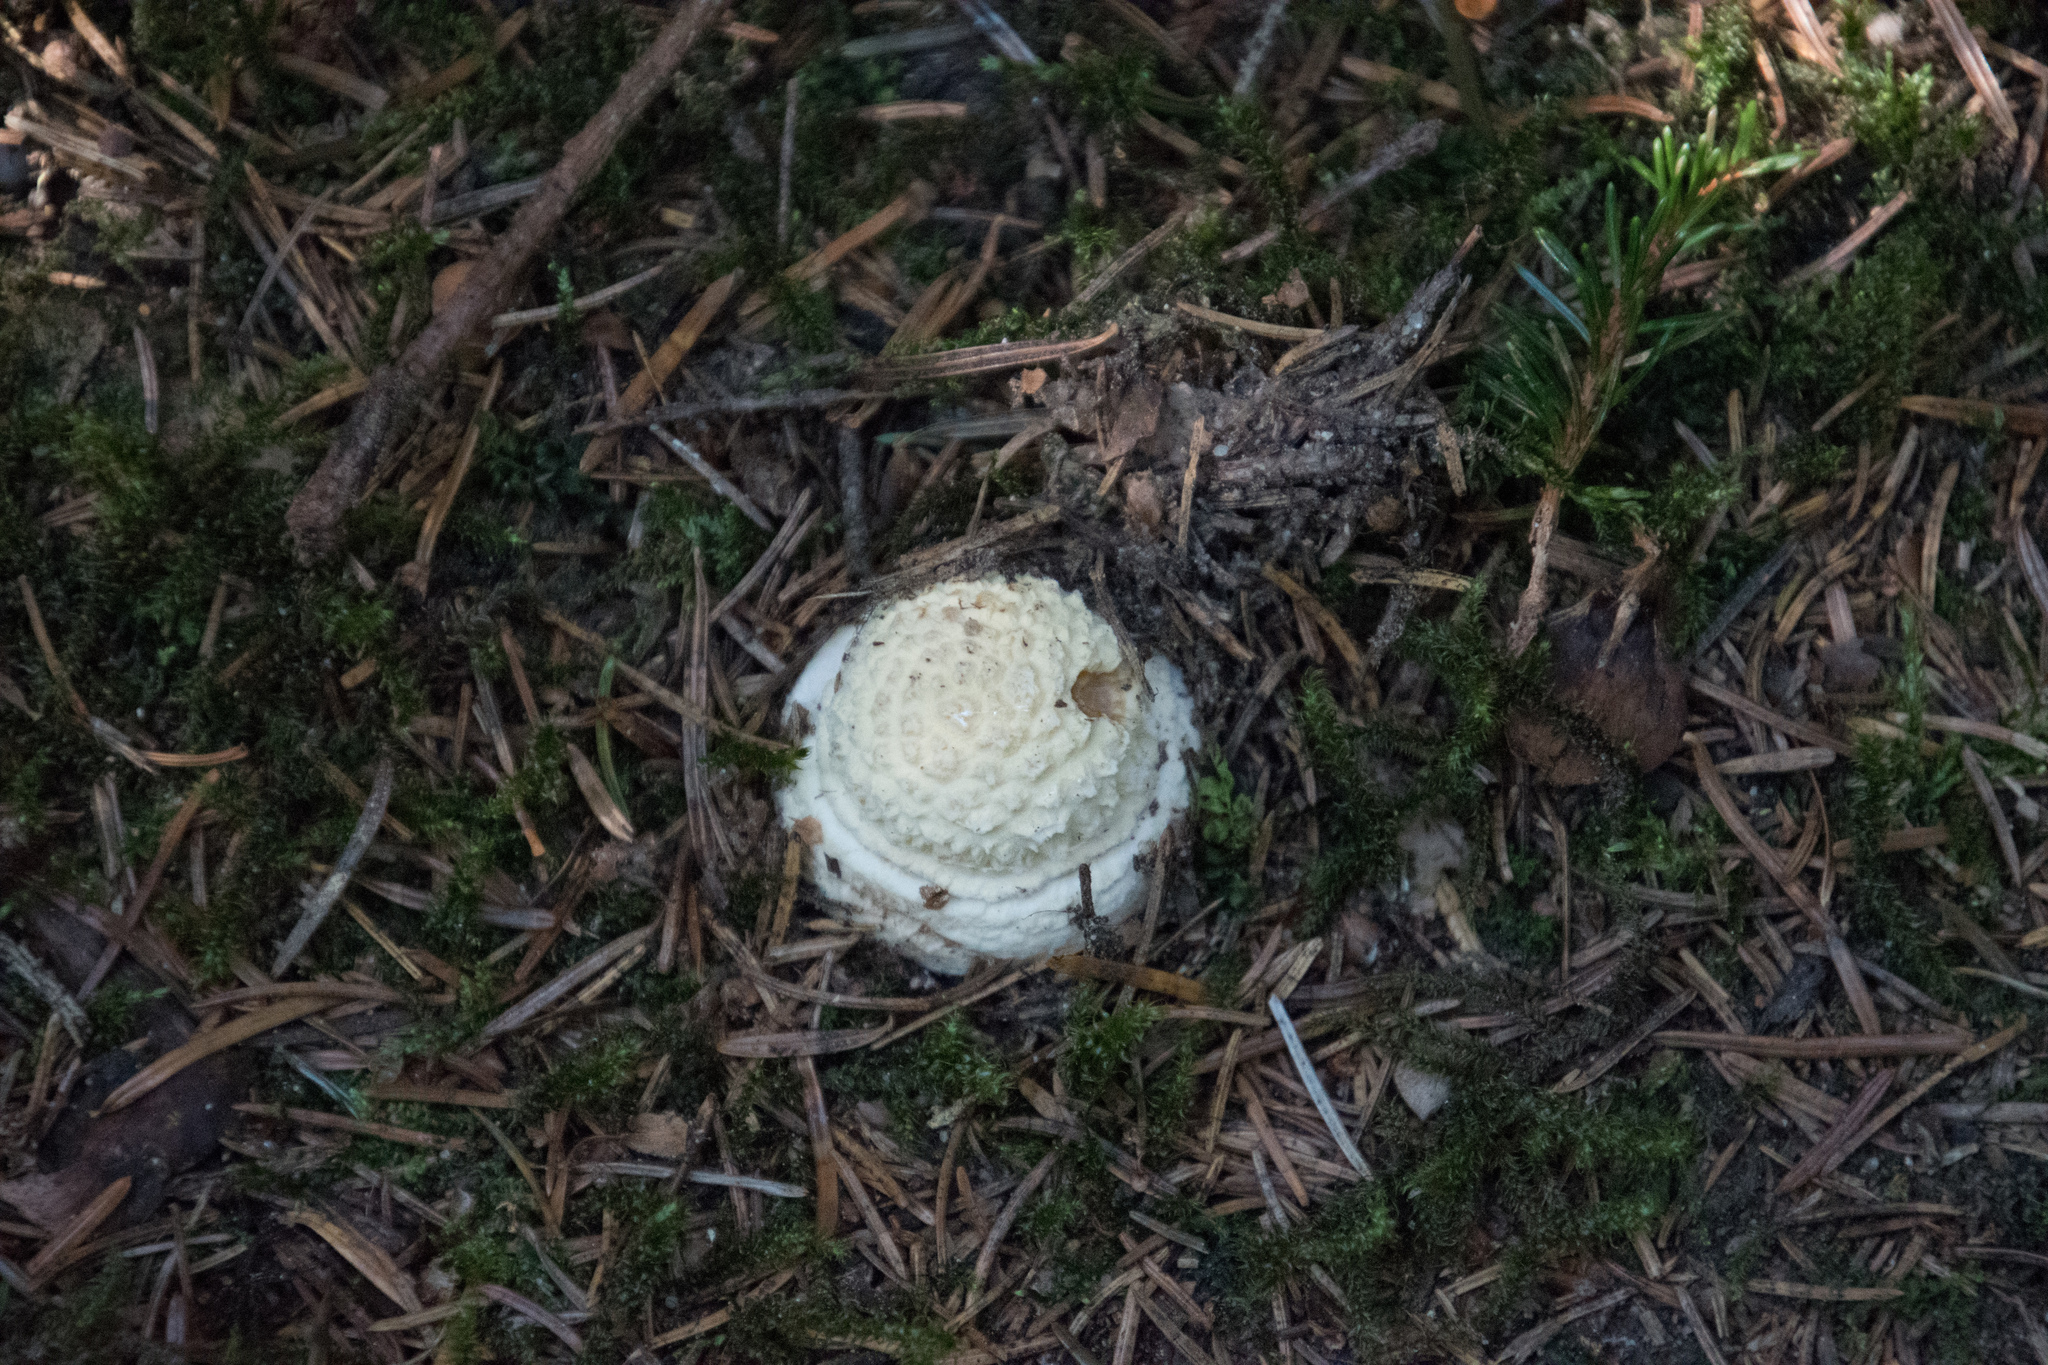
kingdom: Fungi
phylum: Basidiomycota
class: Agaricomycetes
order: Agaricales
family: Amanitaceae
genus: Amanita
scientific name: Amanita muscaria
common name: Fly agaric
